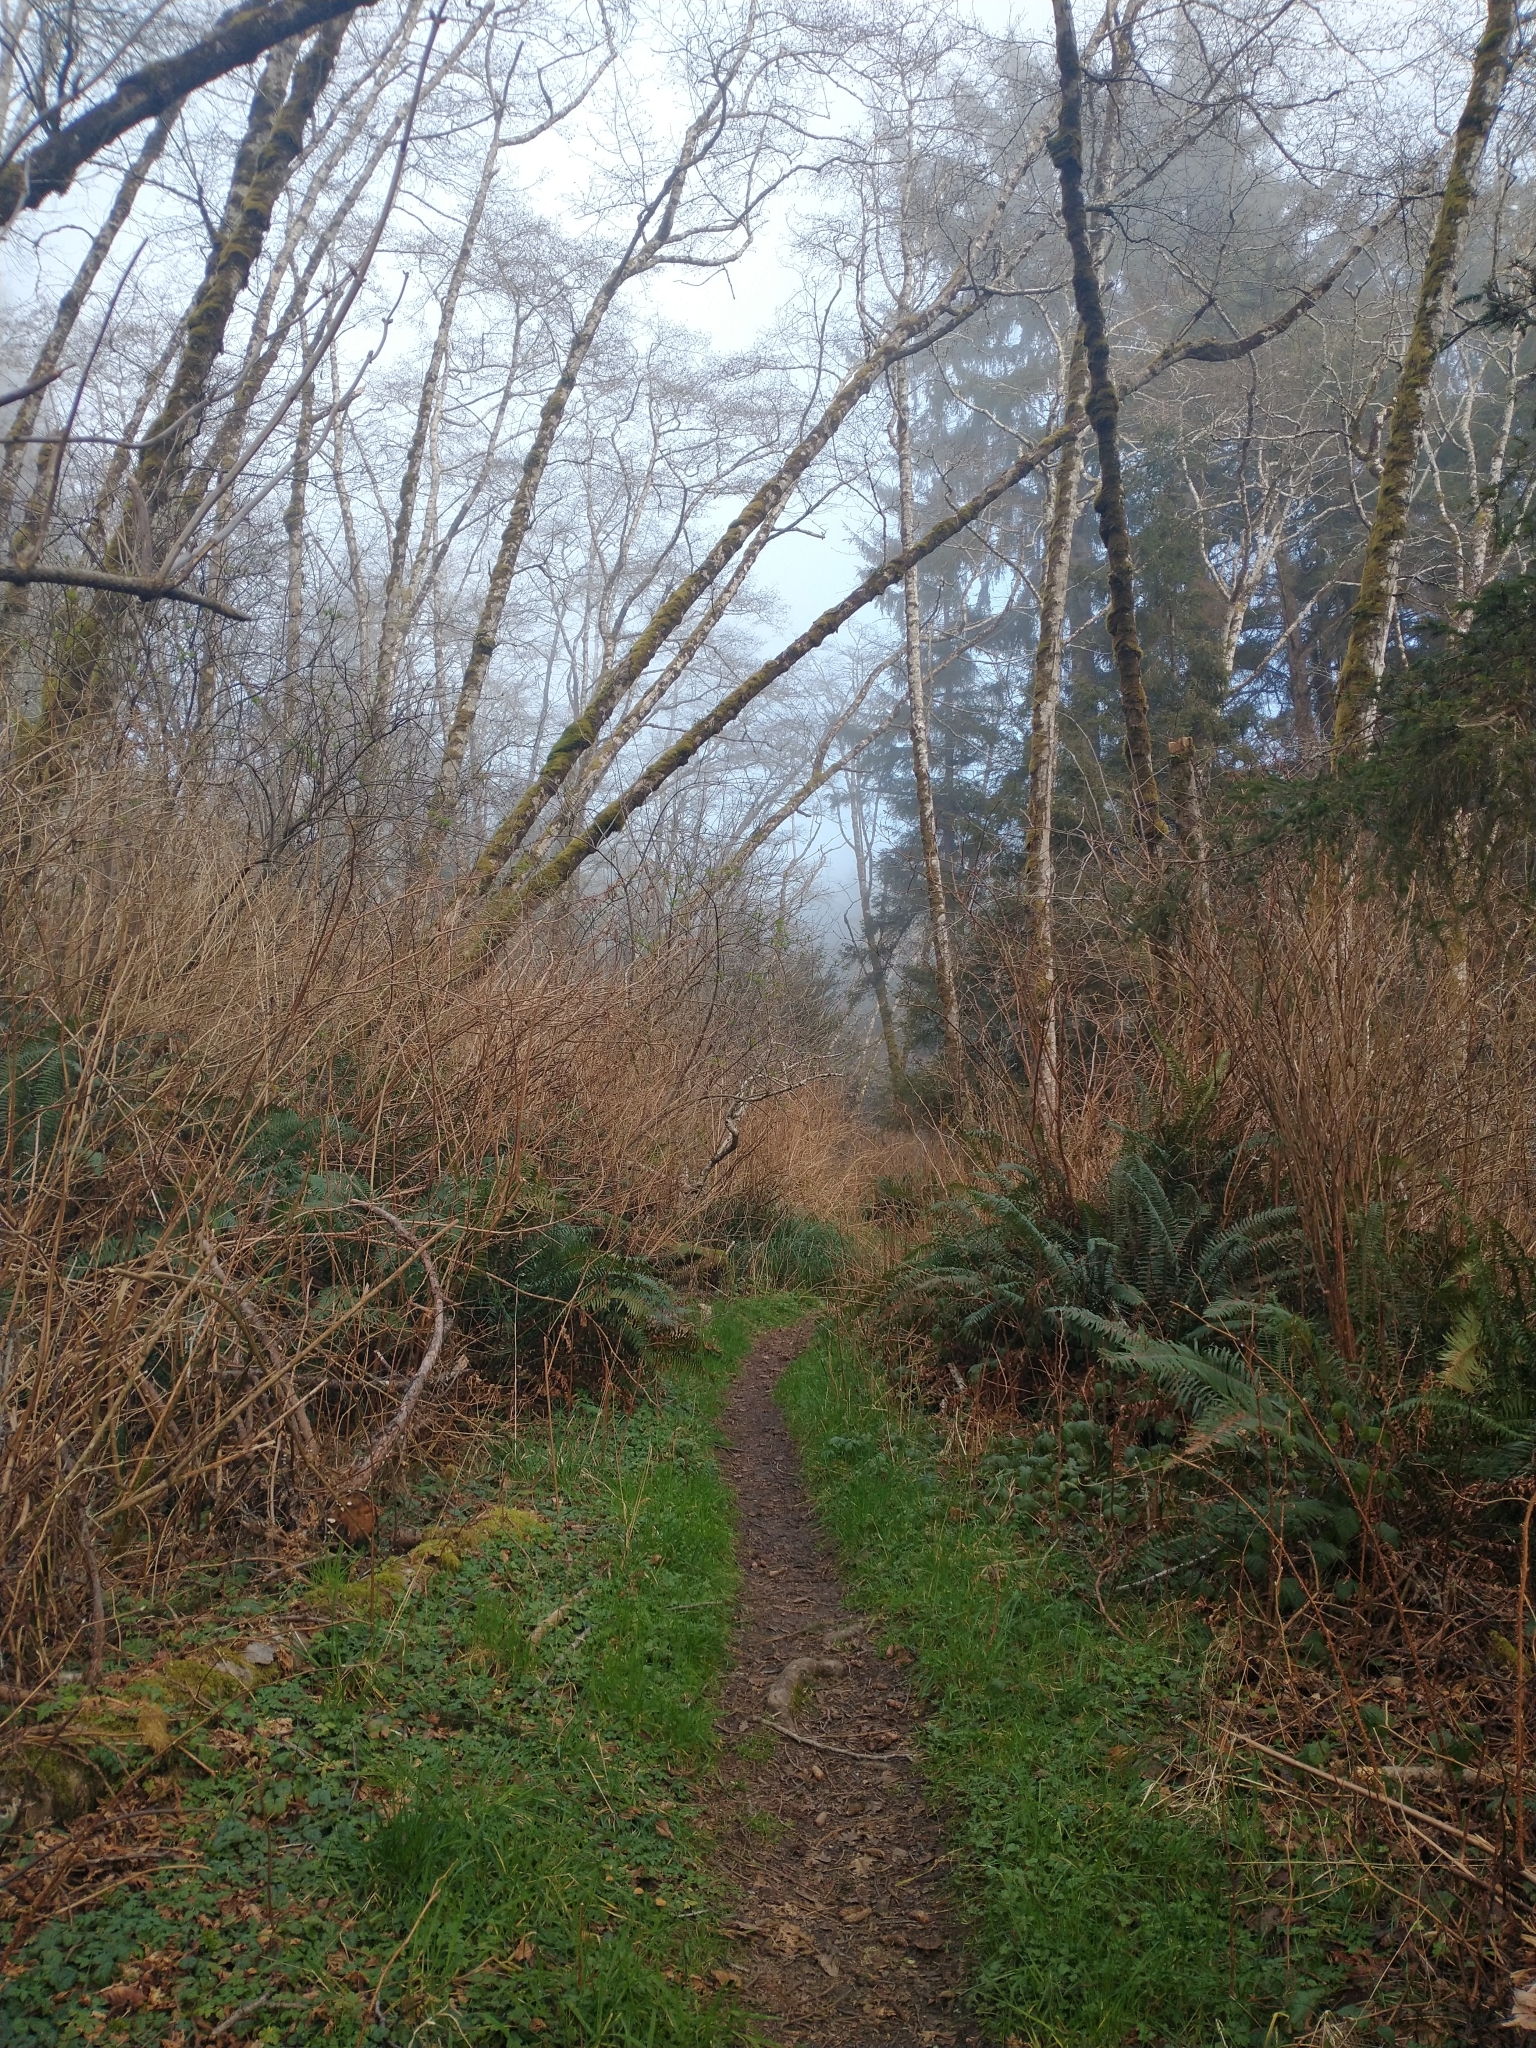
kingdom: Plantae
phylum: Tracheophyta
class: Polypodiopsida
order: Polypodiales
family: Dryopteridaceae
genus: Polystichum
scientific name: Polystichum munitum
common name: Western sword-fern
